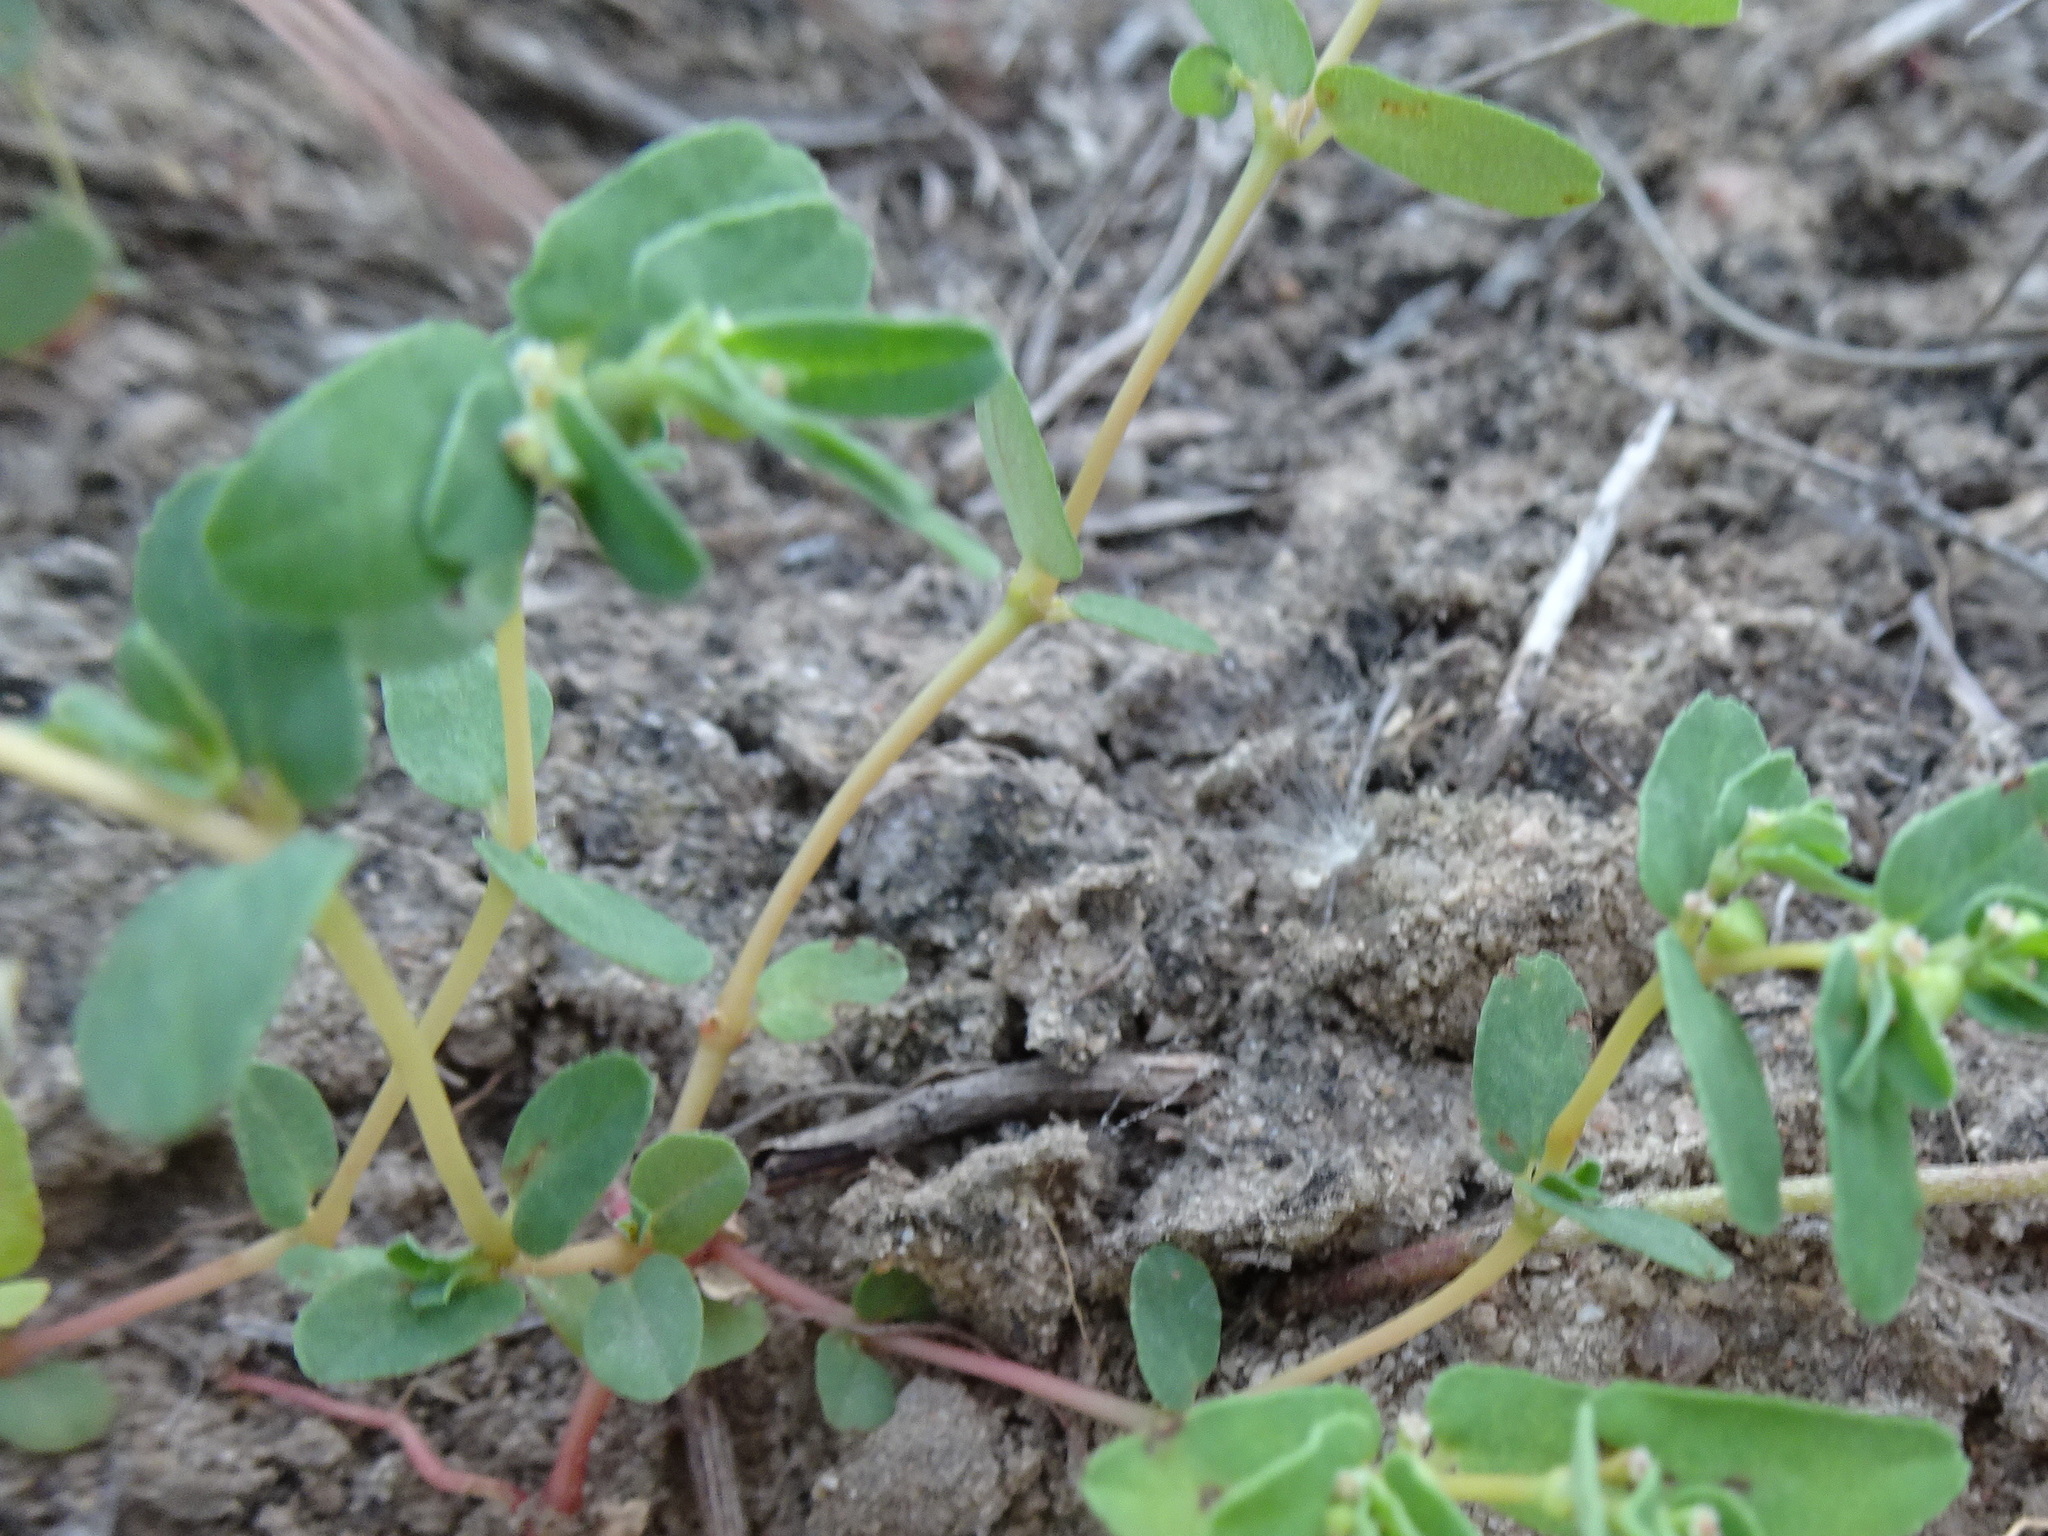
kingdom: Plantae
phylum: Tracheophyta
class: Magnoliopsida
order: Malpighiales
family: Euphorbiaceae
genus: Euphorbia
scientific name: Euphorbia glyptosperma
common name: Corrugate-seeded spurge
